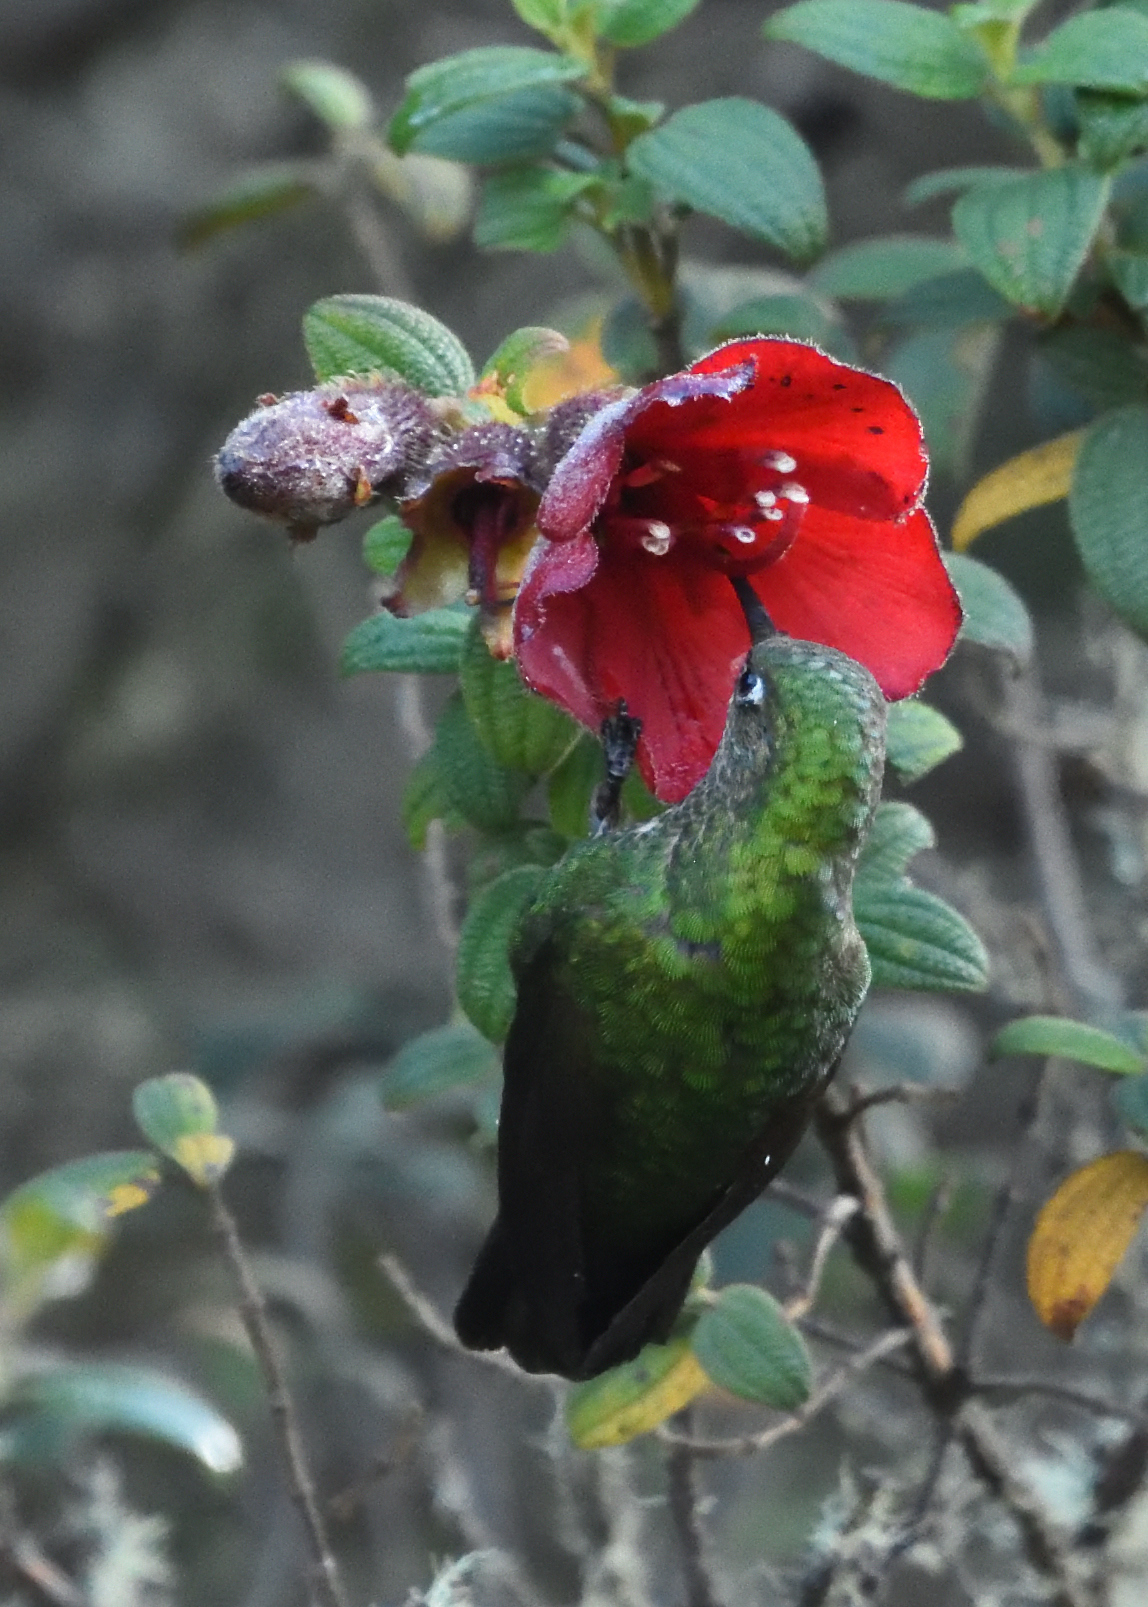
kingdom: Animalia
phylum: Chordata
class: Aves
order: Apodiformes
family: Trochilidae
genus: Metallura
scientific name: Metallura williami
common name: Viridian metaltail
